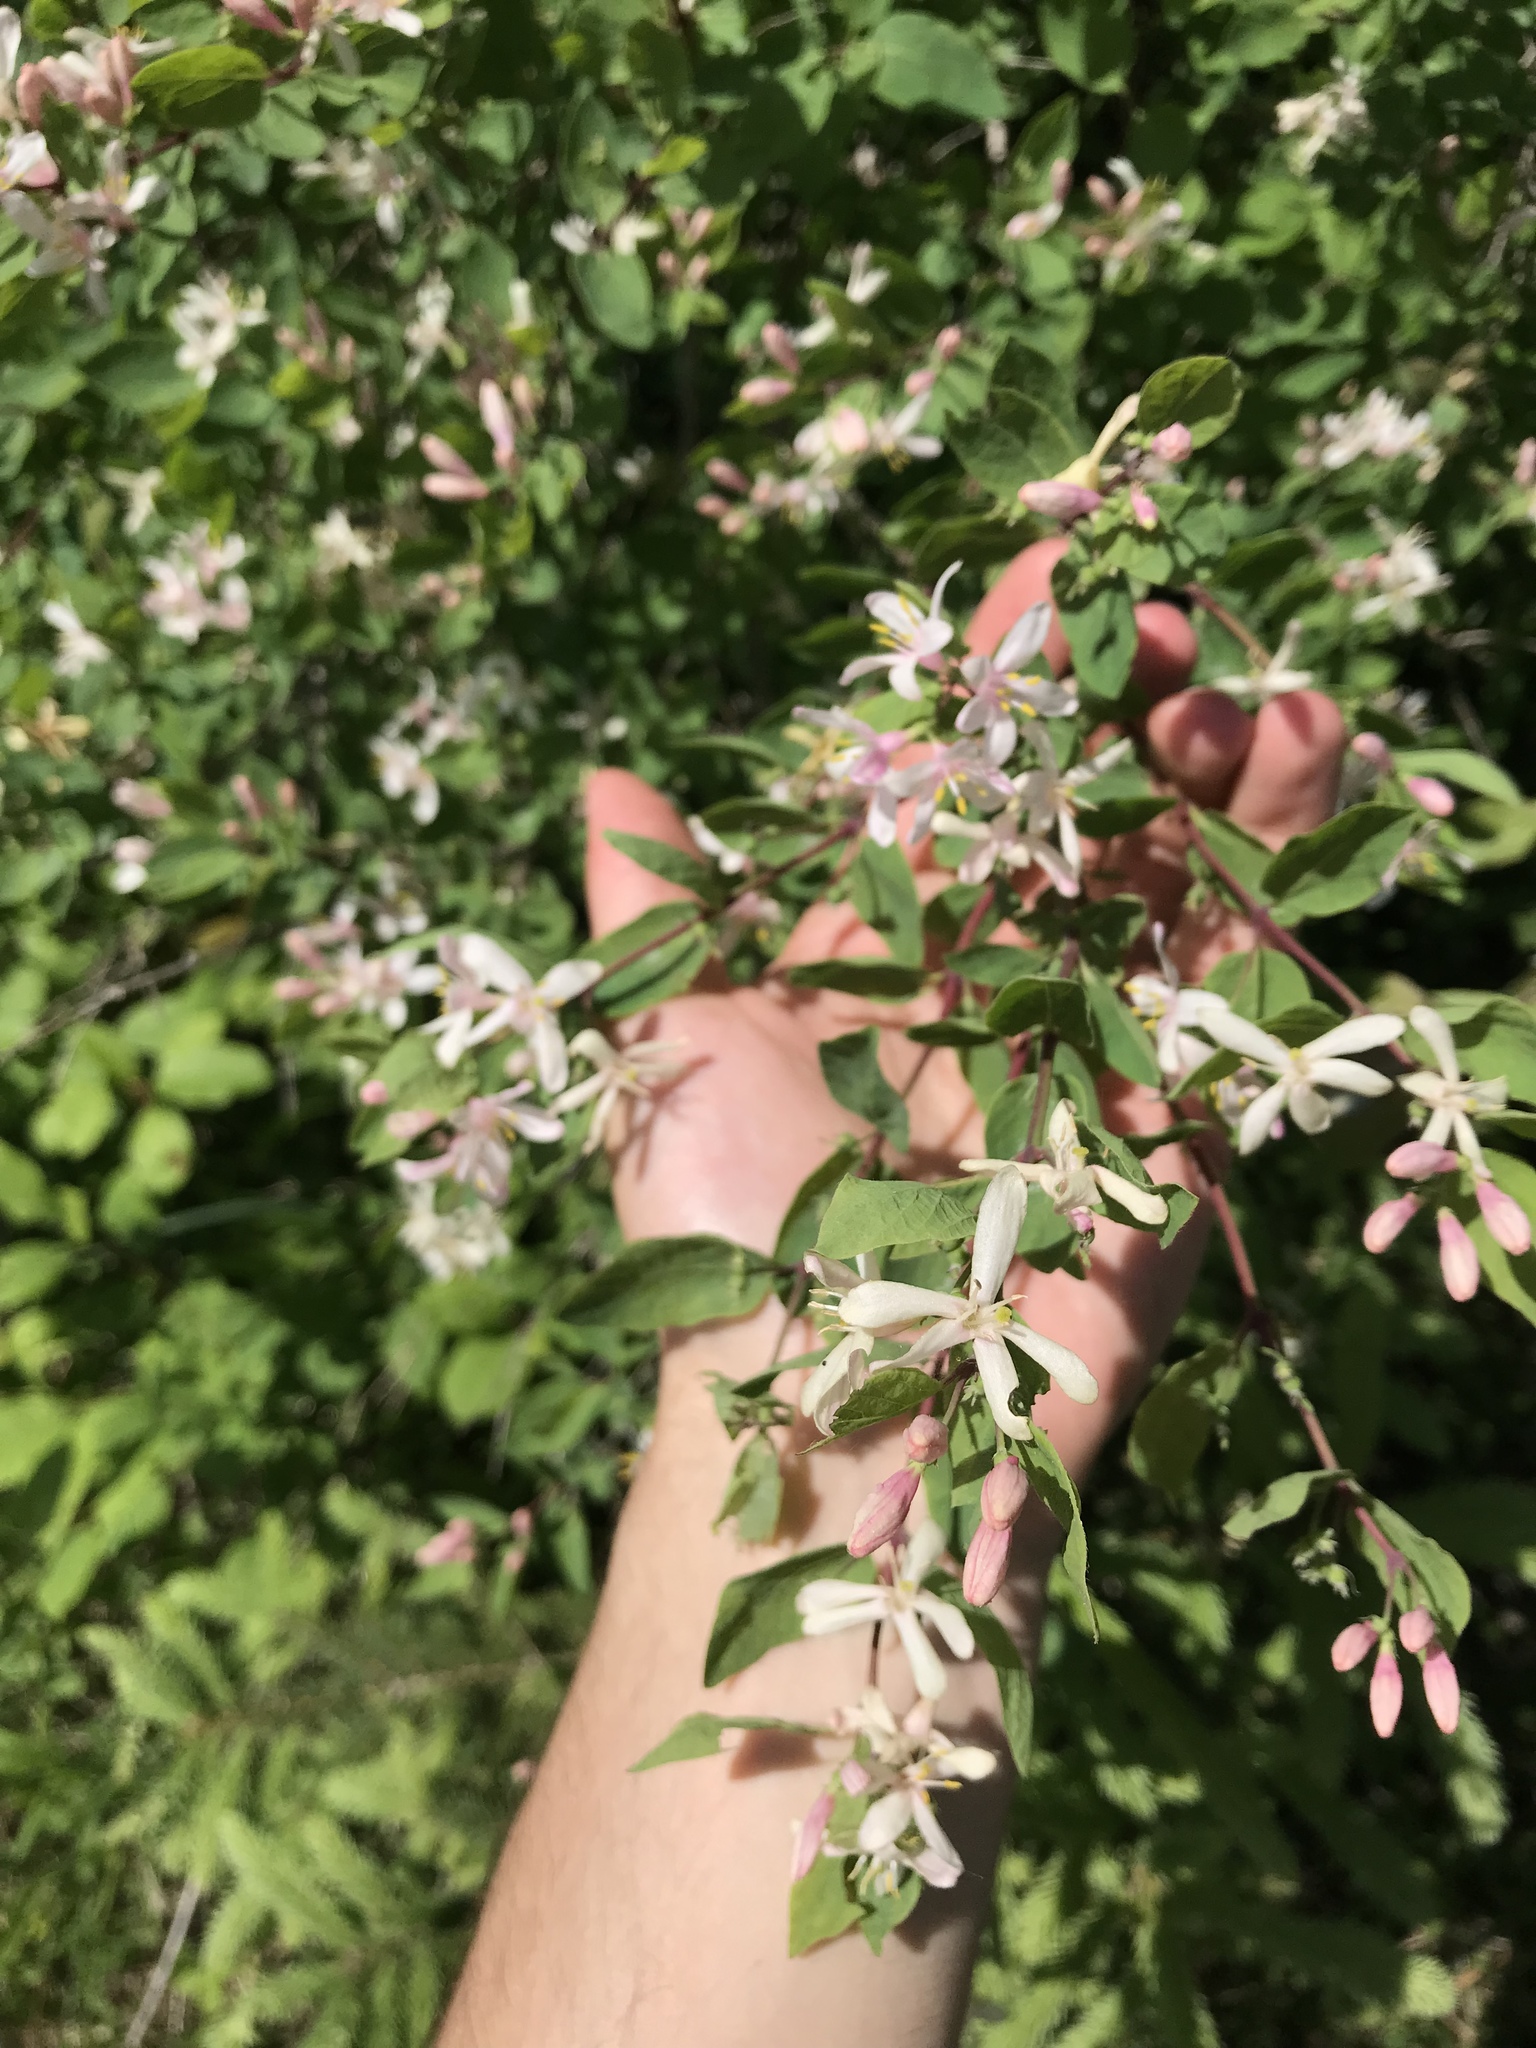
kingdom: Plantae
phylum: Tracheophyta
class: Magnoliopsida
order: Dipsacales
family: Caprifoliaceae
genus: Lonicera
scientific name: Lonicera morrowii
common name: Morrow's honeysuckle
